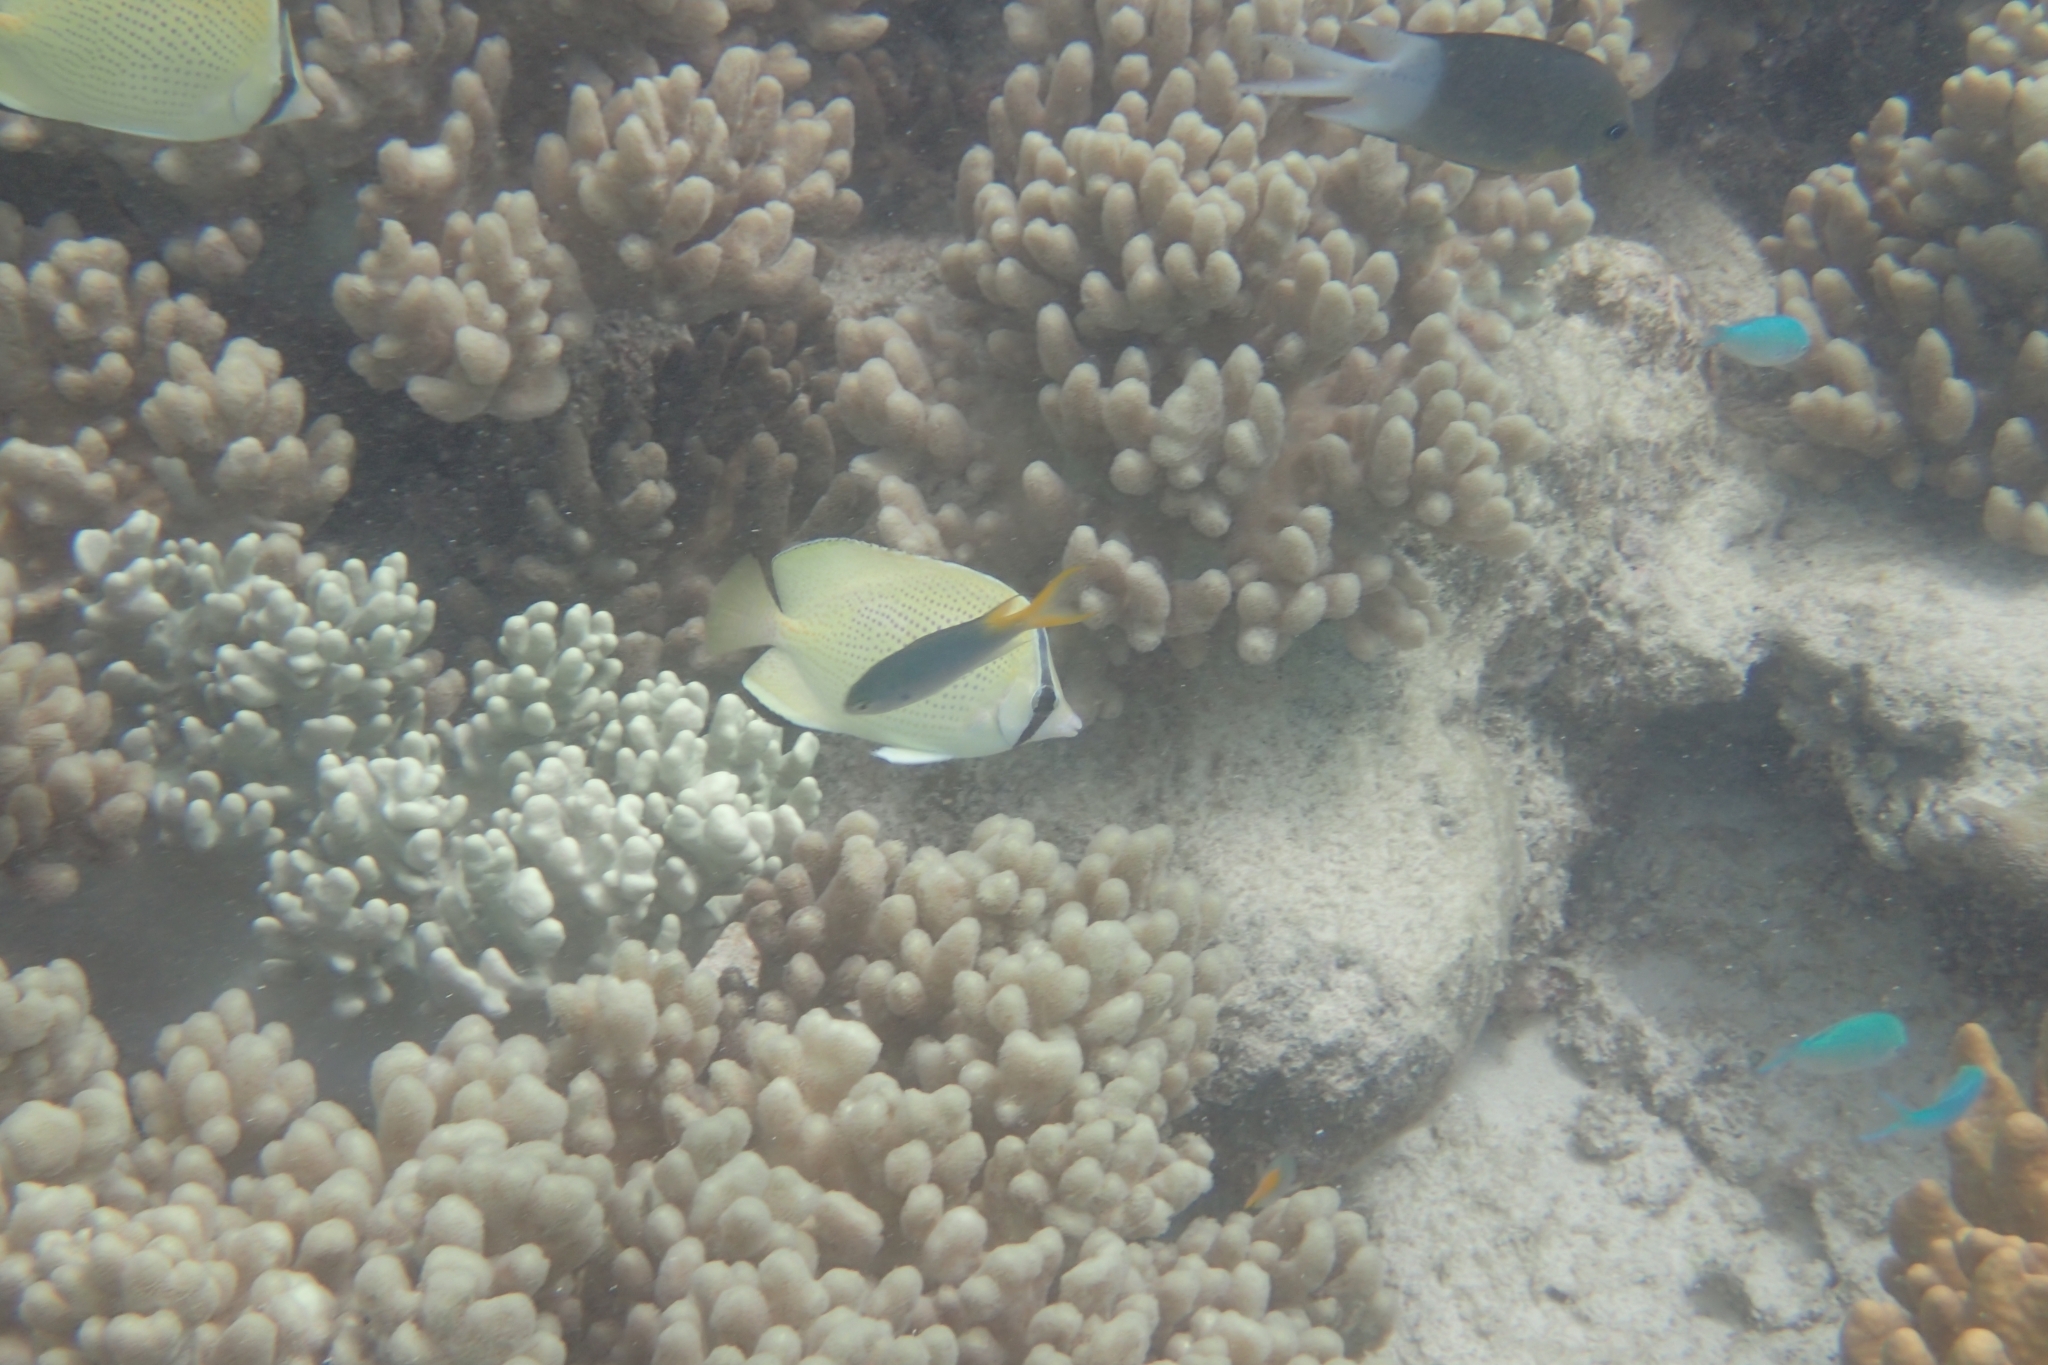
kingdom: Animalia
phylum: Chordata
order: Perciformes
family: Chaetodontidae
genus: Chaetodon
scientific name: Chaetodon citrinellus
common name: Speckled butterflyfish
